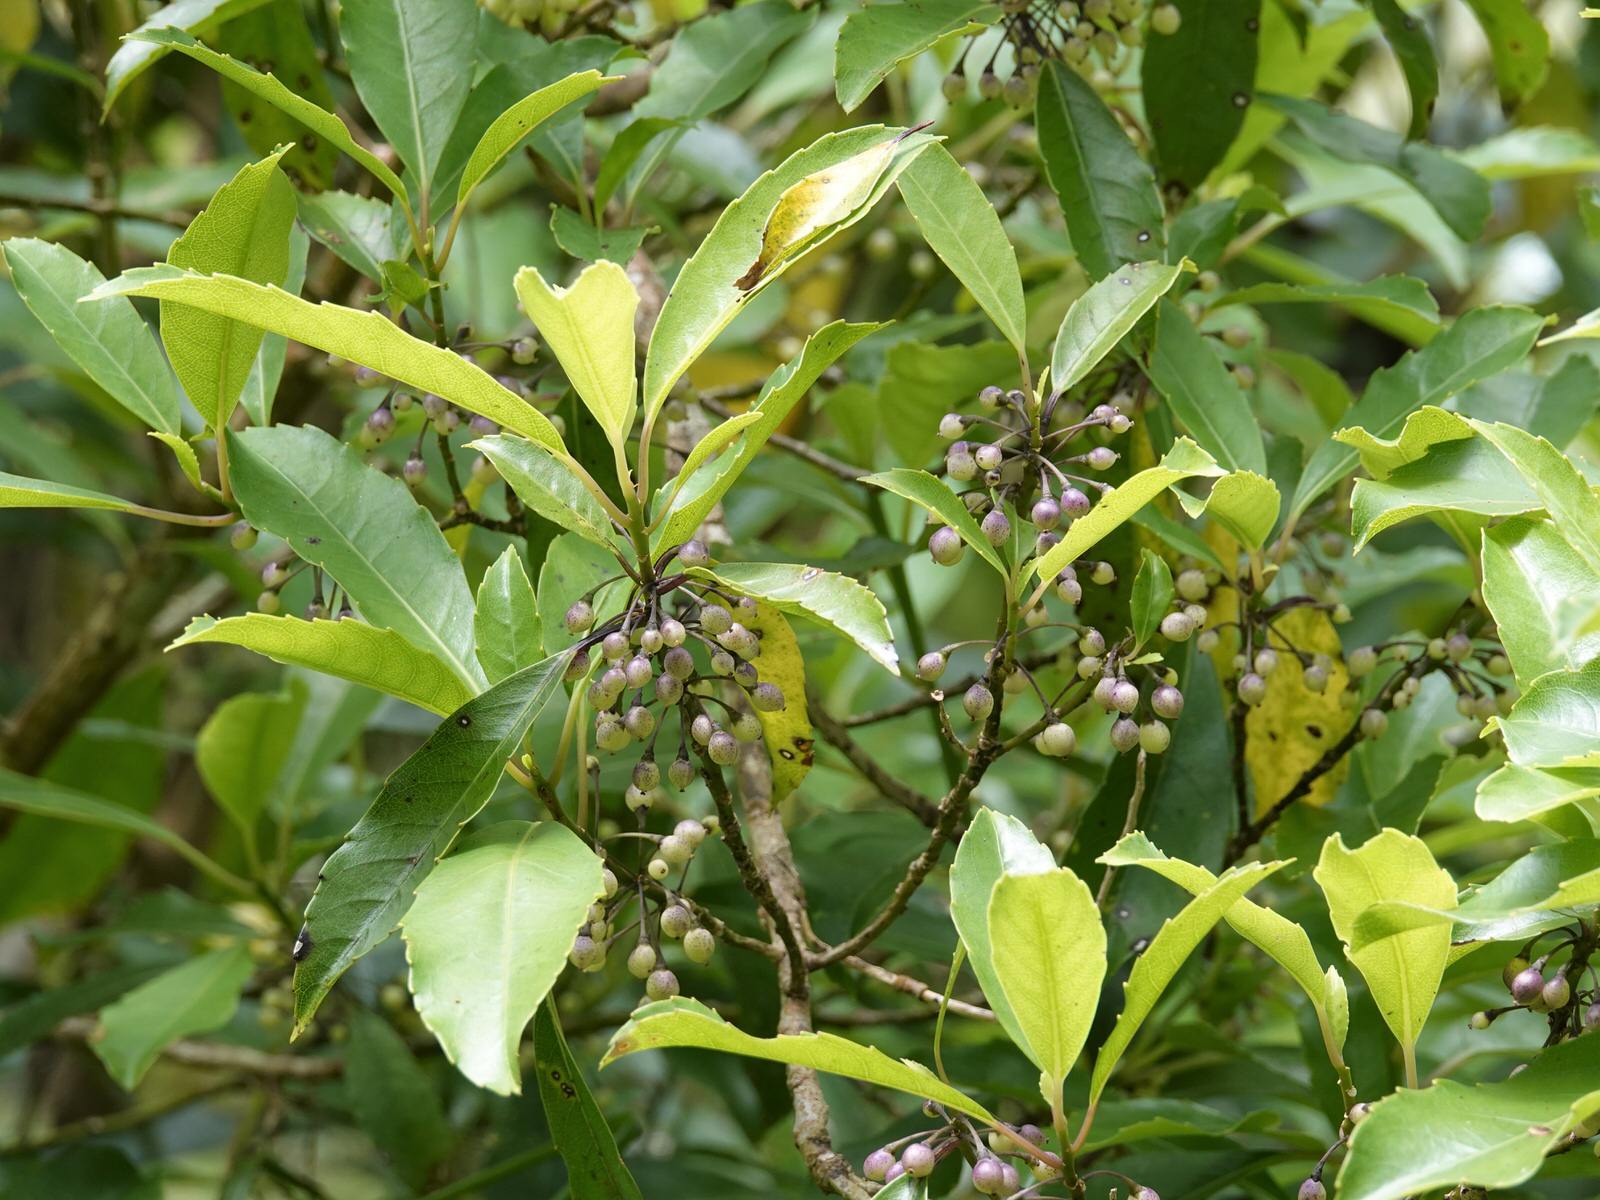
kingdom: Plantae
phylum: Tracheophyta
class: Magnoliopsida
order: Malpighiales
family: Violaceae
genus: Melicytus
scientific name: Melicytus macrophyllus
